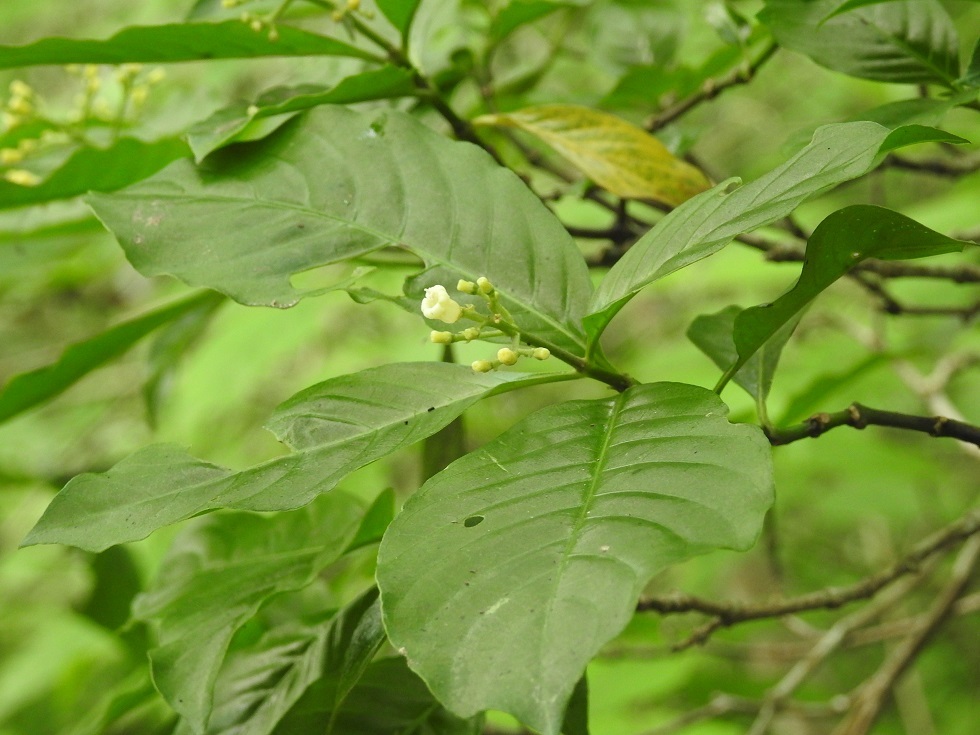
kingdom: Plantae
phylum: Tracheophyta
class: Magnoliopsida
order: Gentianales
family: Rubiaceae
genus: Eumachia
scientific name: Eumachia microdon
